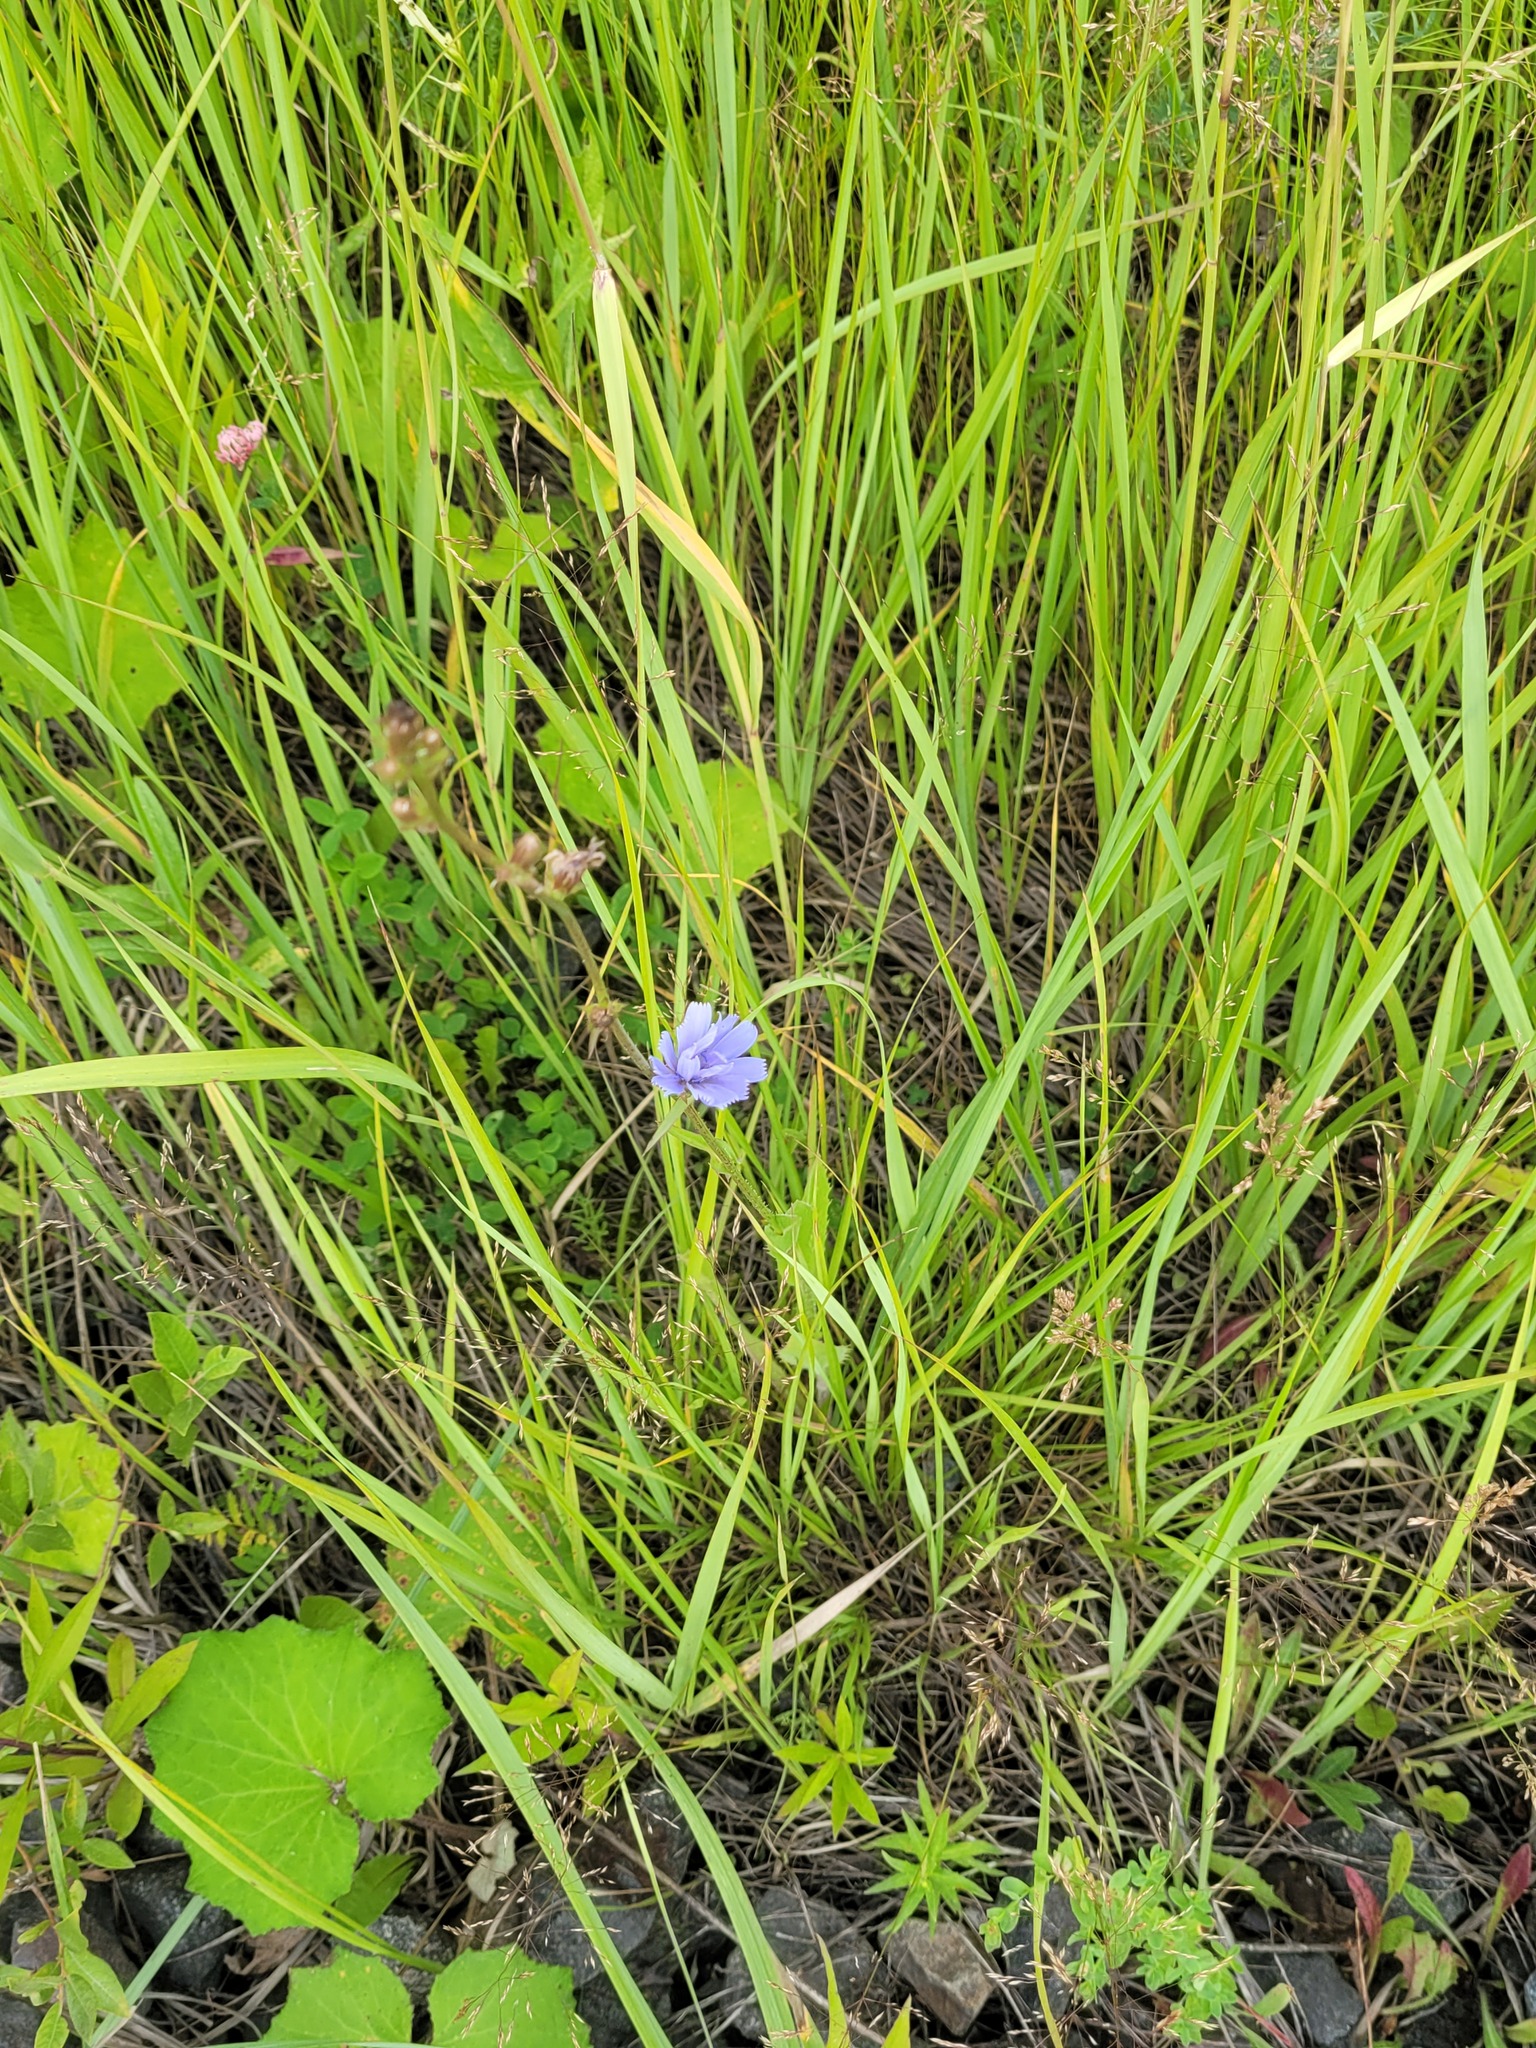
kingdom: Plantae
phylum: Tracheophyta
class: Magnoliopsida
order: Asterales
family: Asteraceae
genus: Cichorium
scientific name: Cichorium intybus
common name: Chicory
